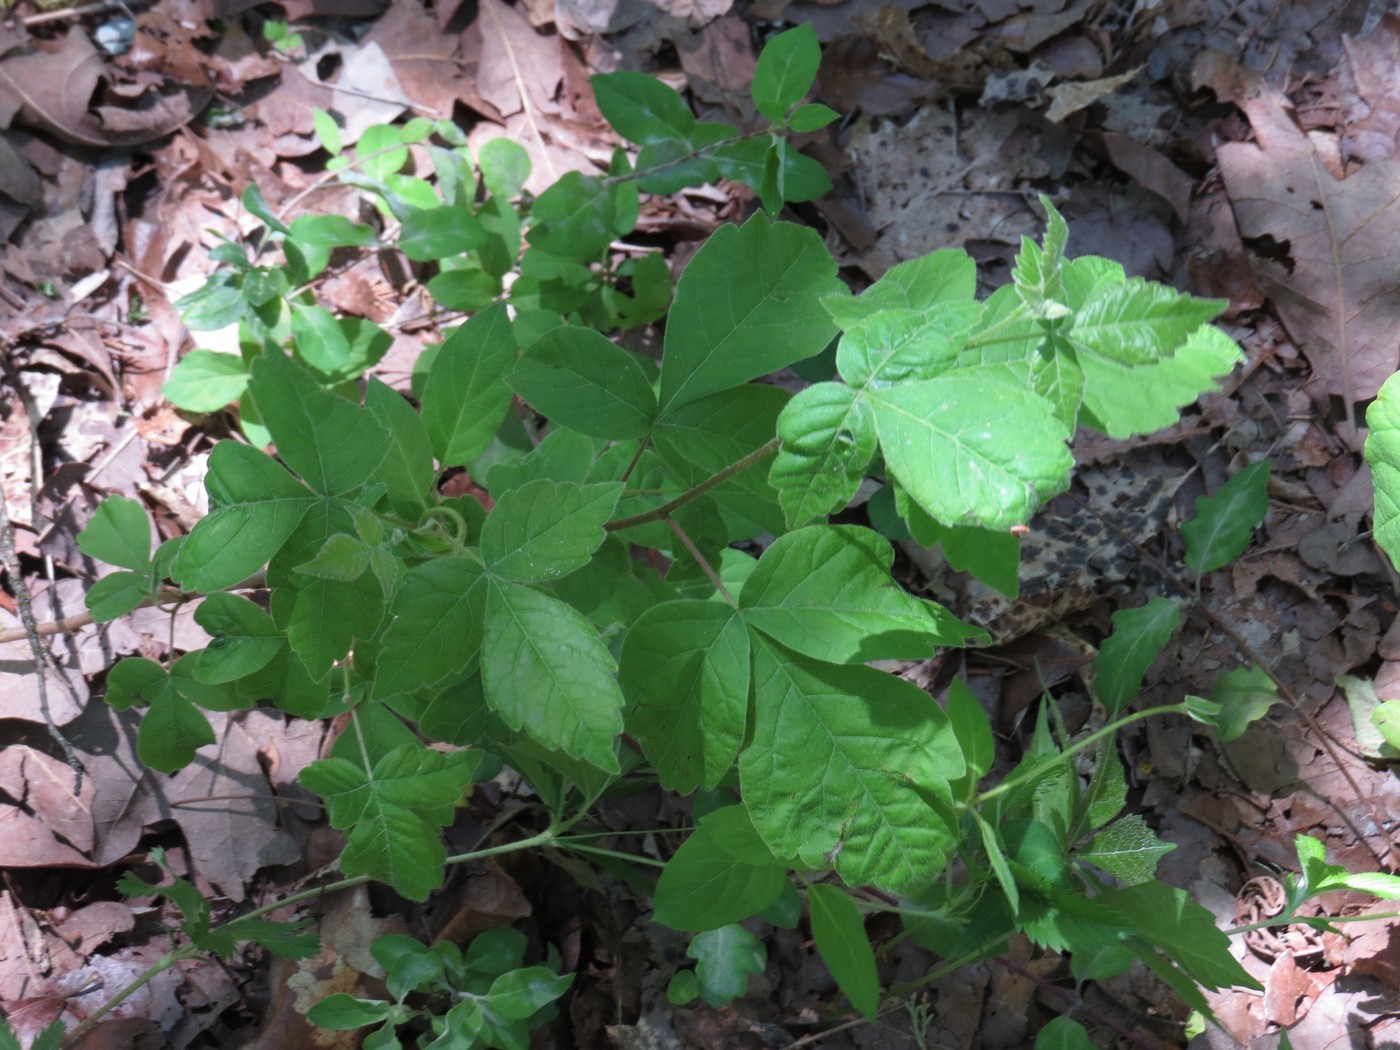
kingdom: Plantae
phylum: Tracheophyta
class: Magnoliopsida
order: Sapindales
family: Anacardiaceae
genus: Rhus
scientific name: Rhus aromatica
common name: Aromatic sumac
